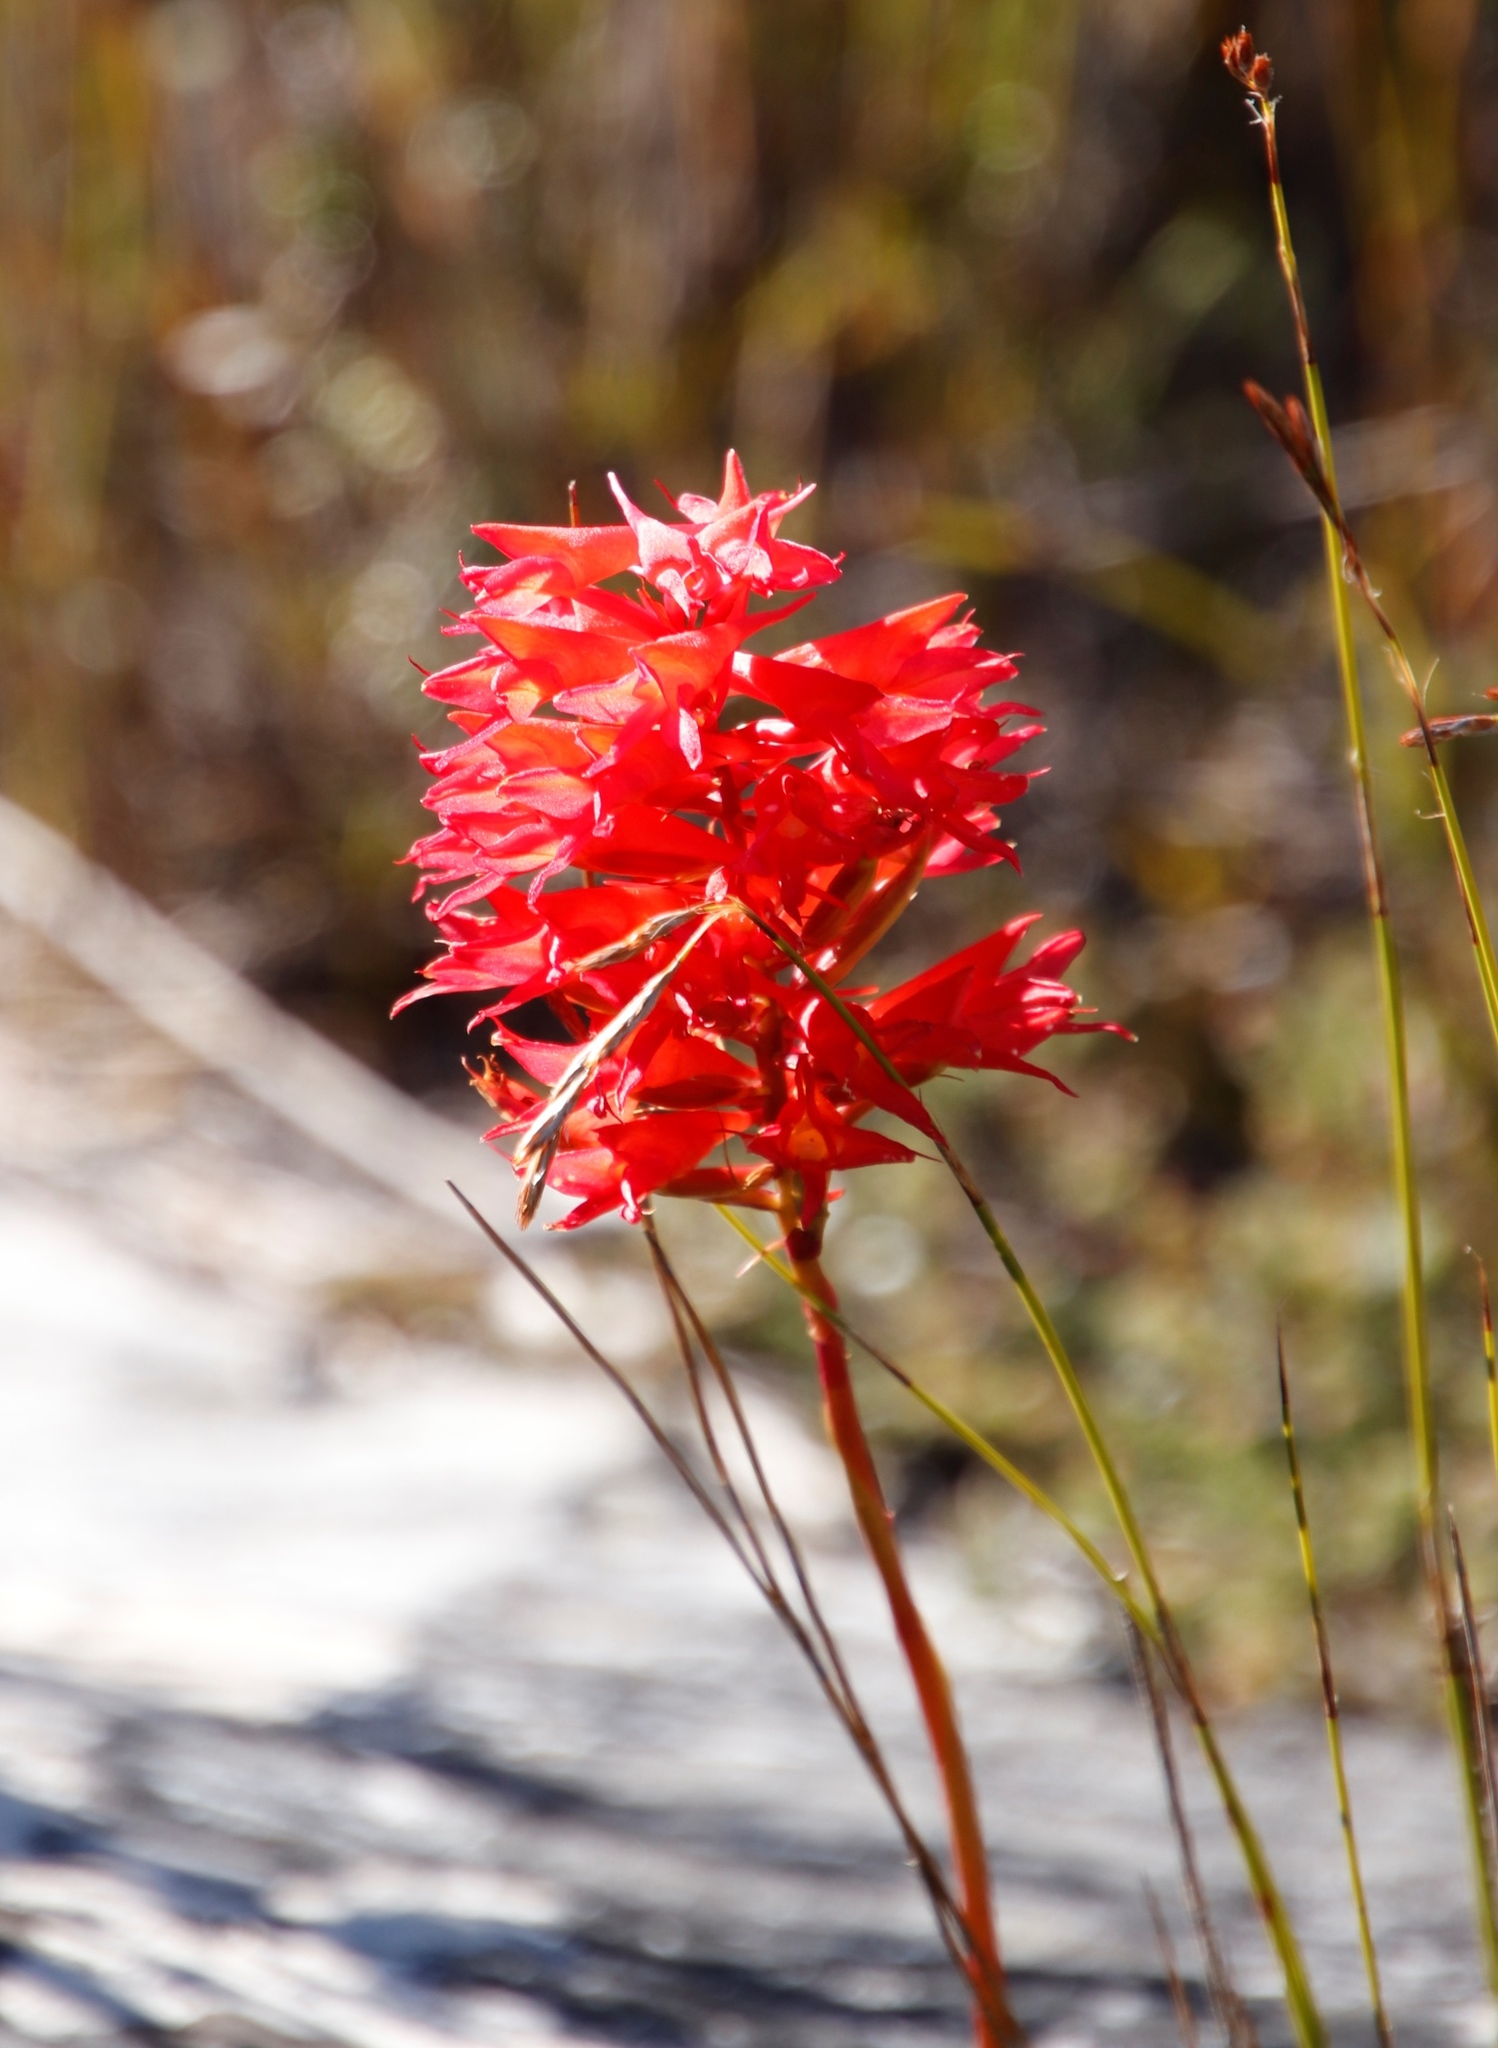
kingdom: Plantae
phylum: Tracheophyta
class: Liliopsida
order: Asparagales
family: Orchidaceae
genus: Disa
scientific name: Disa ferruginea
